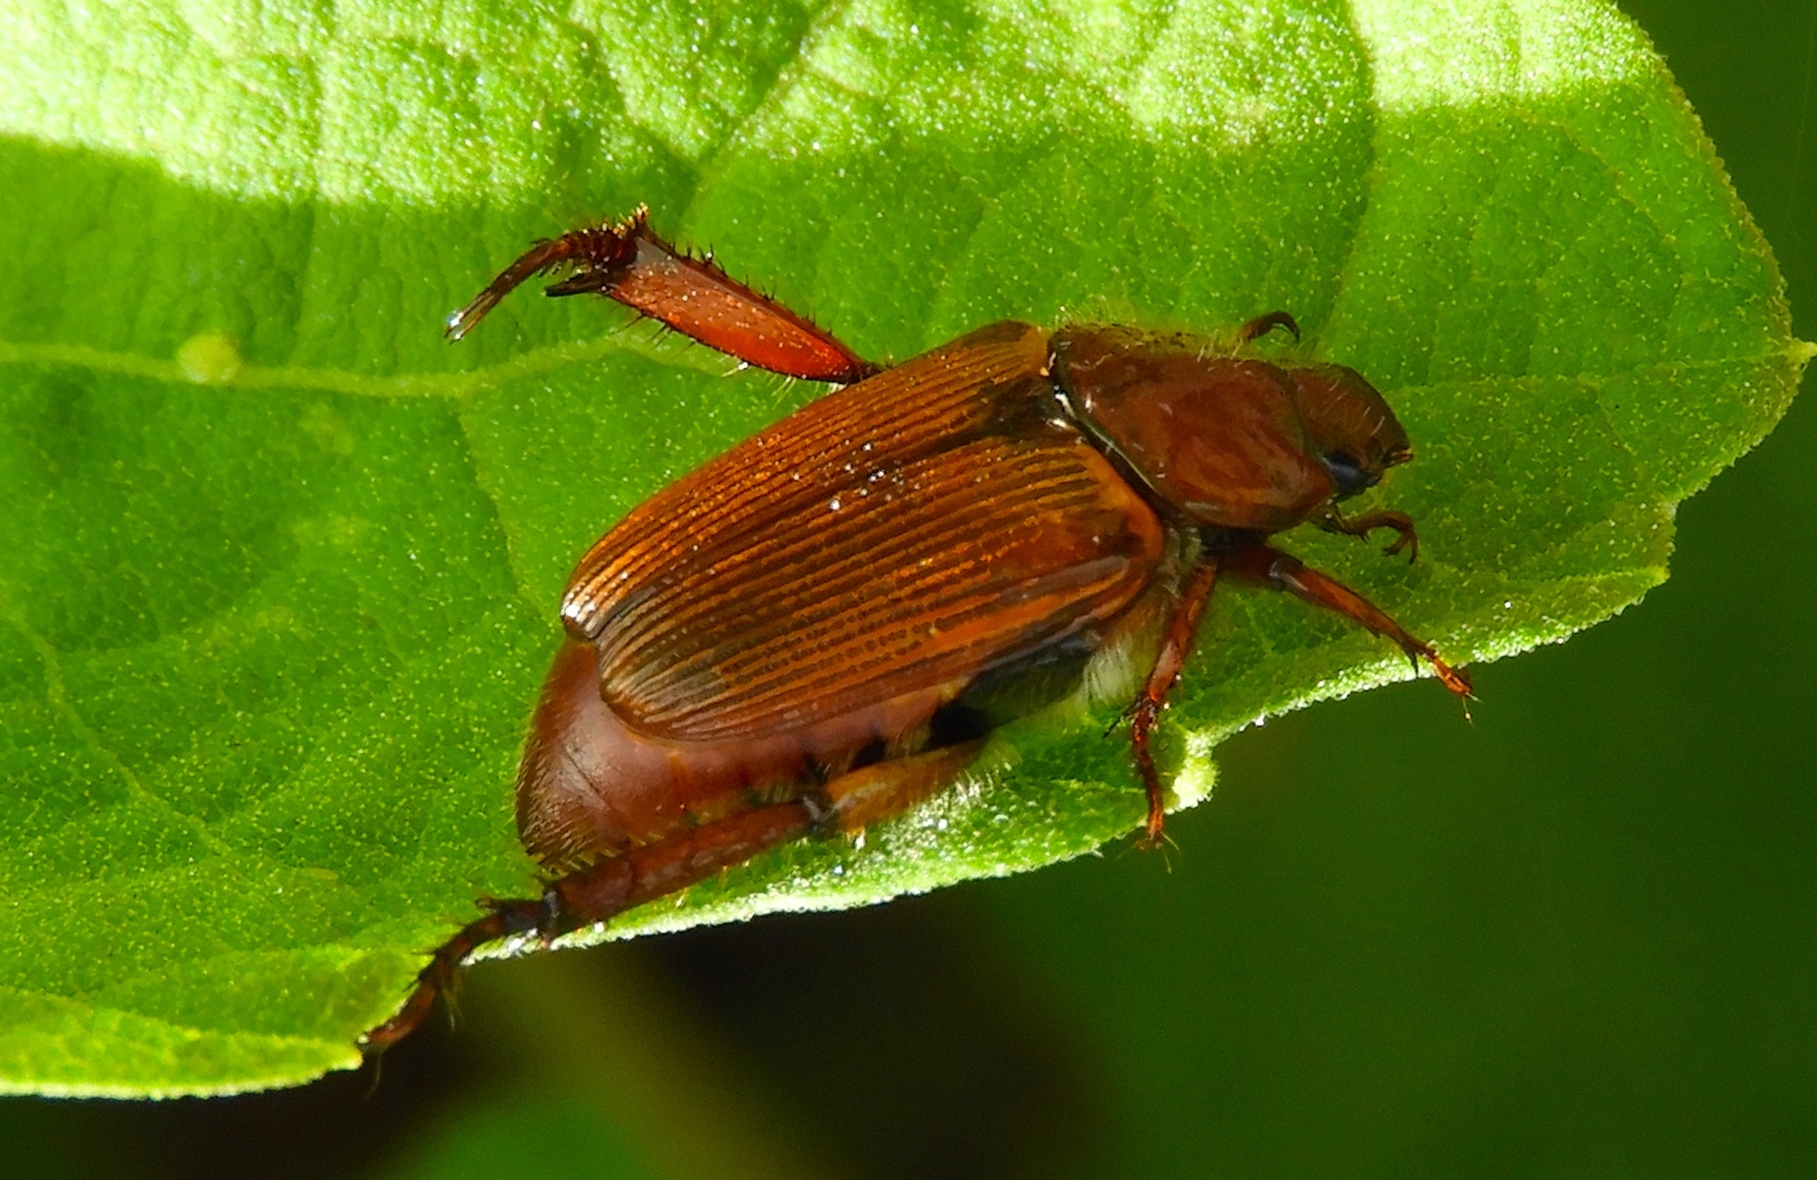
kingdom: Animalia
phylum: Arthropoda
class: Insecta
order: Coleoptera
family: Scarabaeidae
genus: Strigoderma
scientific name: Strigoderma
